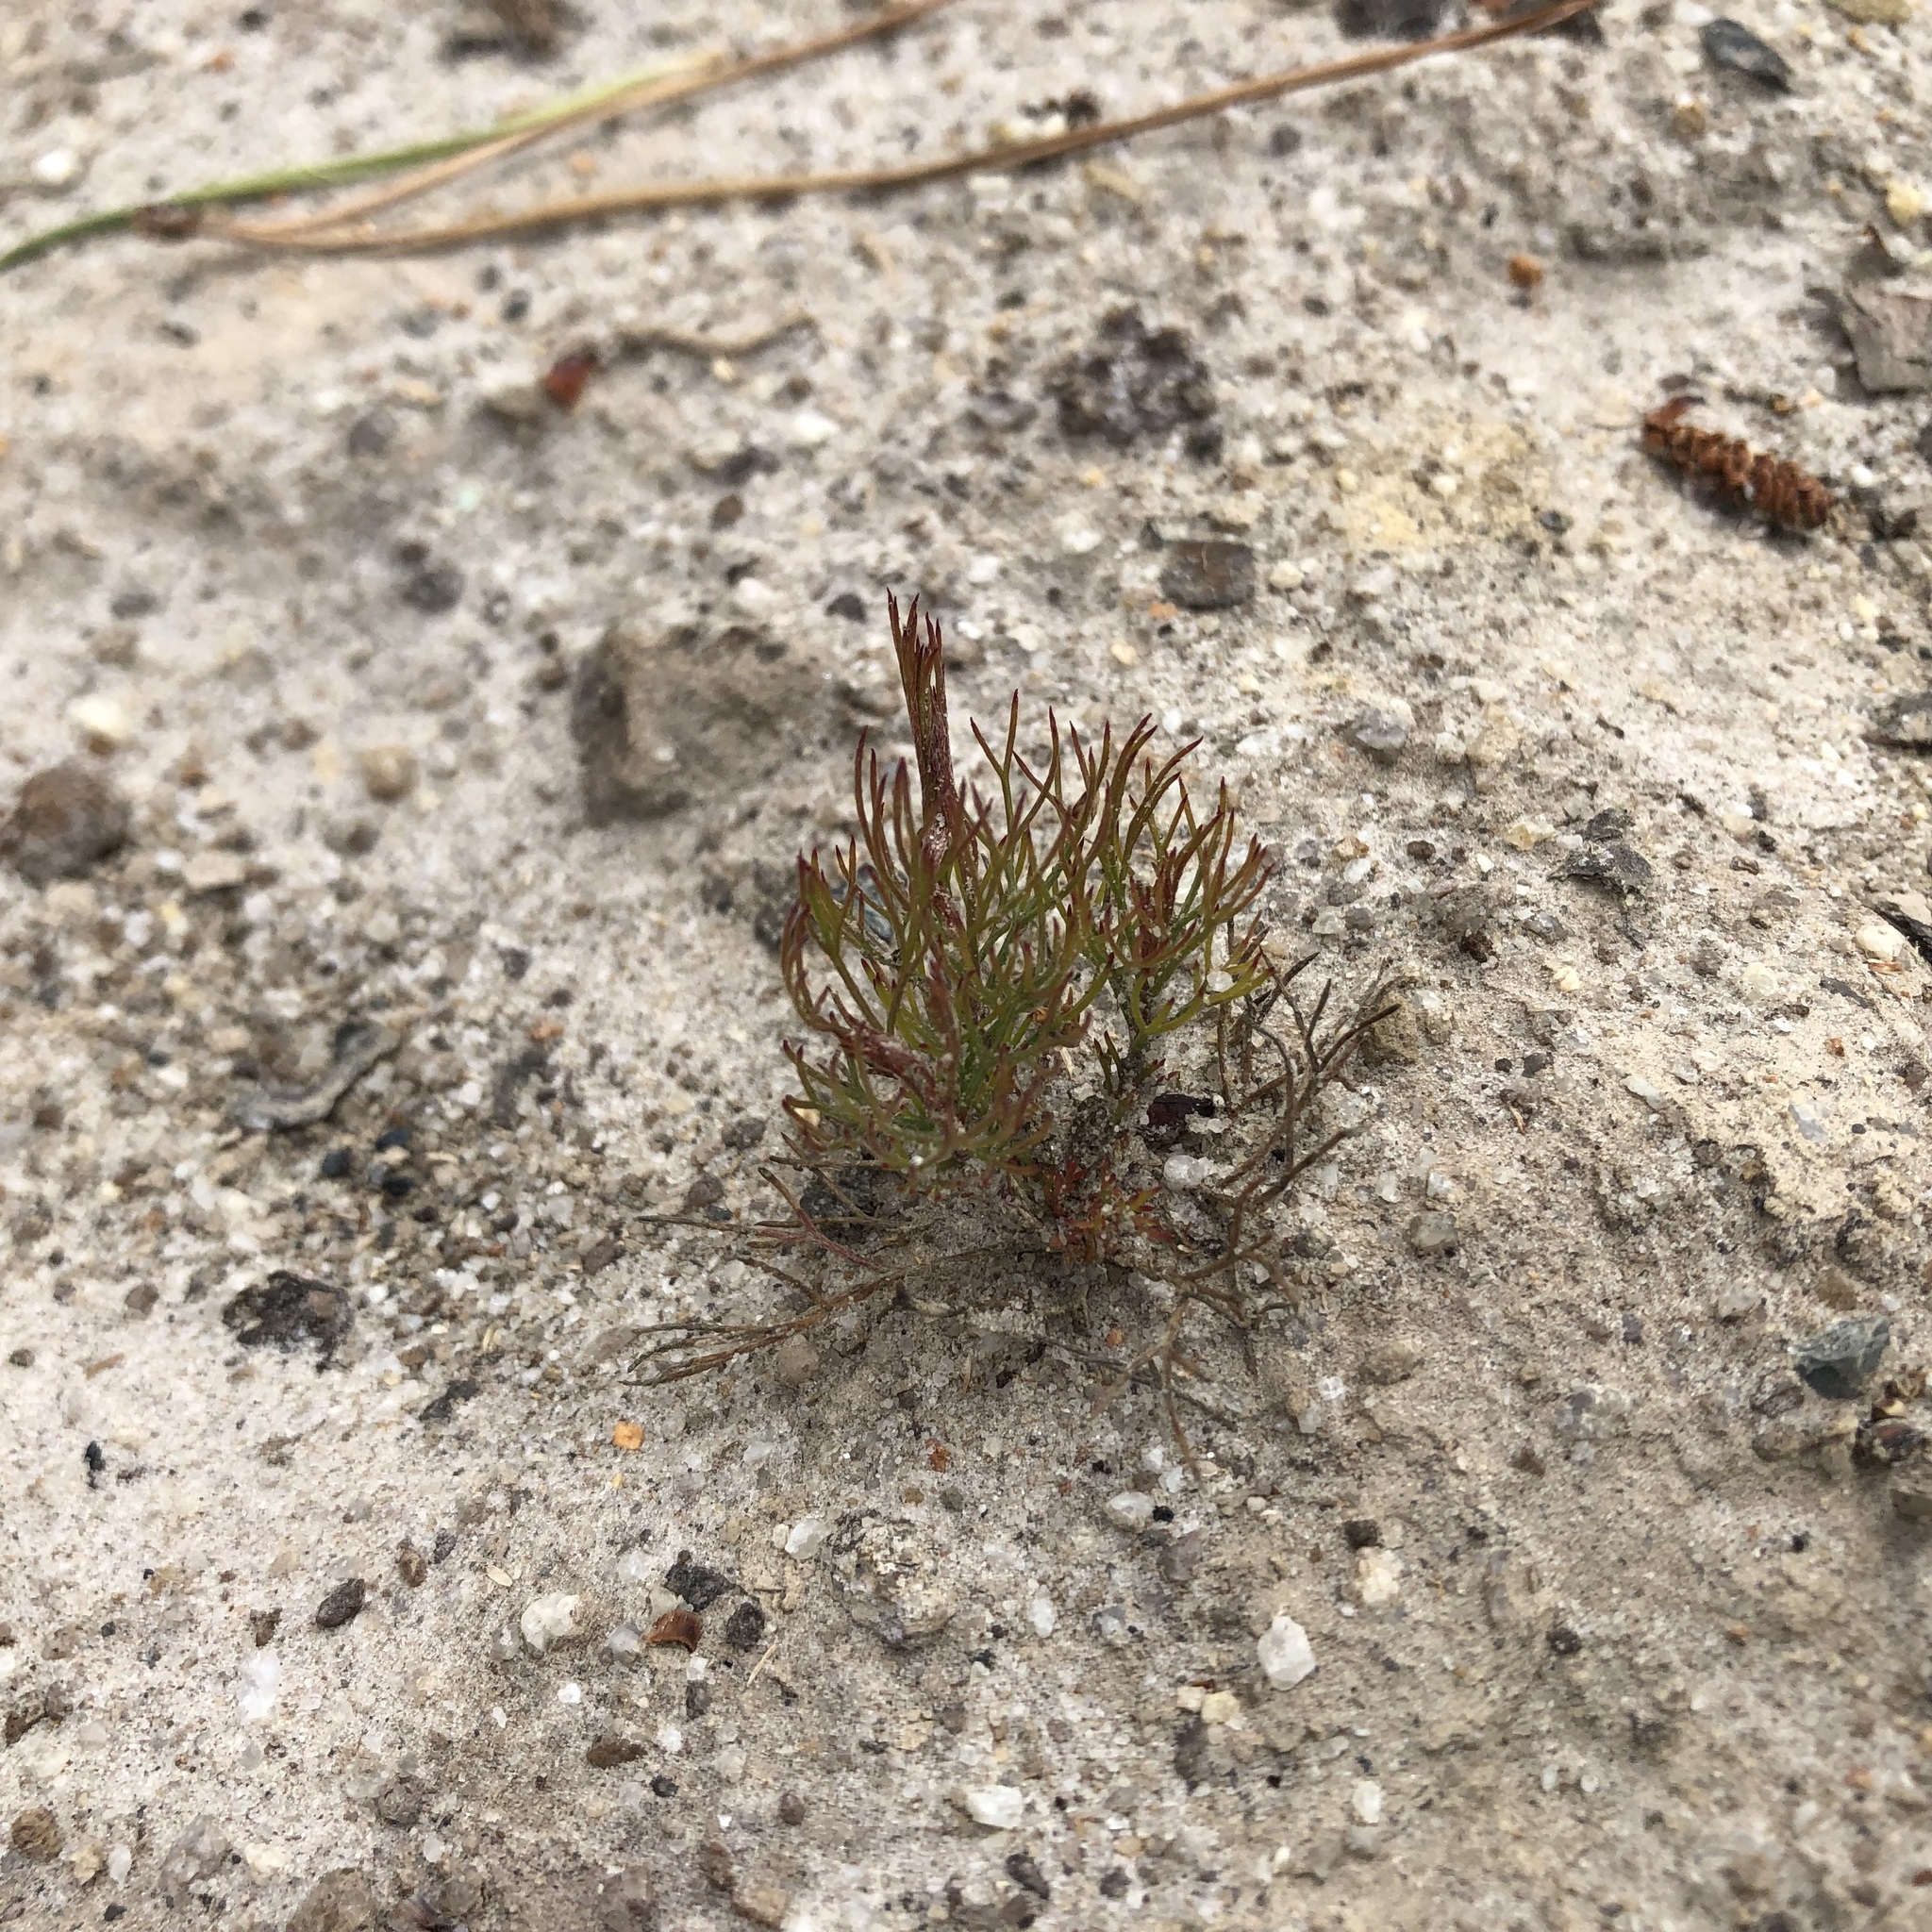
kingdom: Plantae
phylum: Tracheophyta
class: Magnoliopsida
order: Proteales
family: Proteaceae
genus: Serruria
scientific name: Serruria fasciflora
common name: Common pin spiderhead
